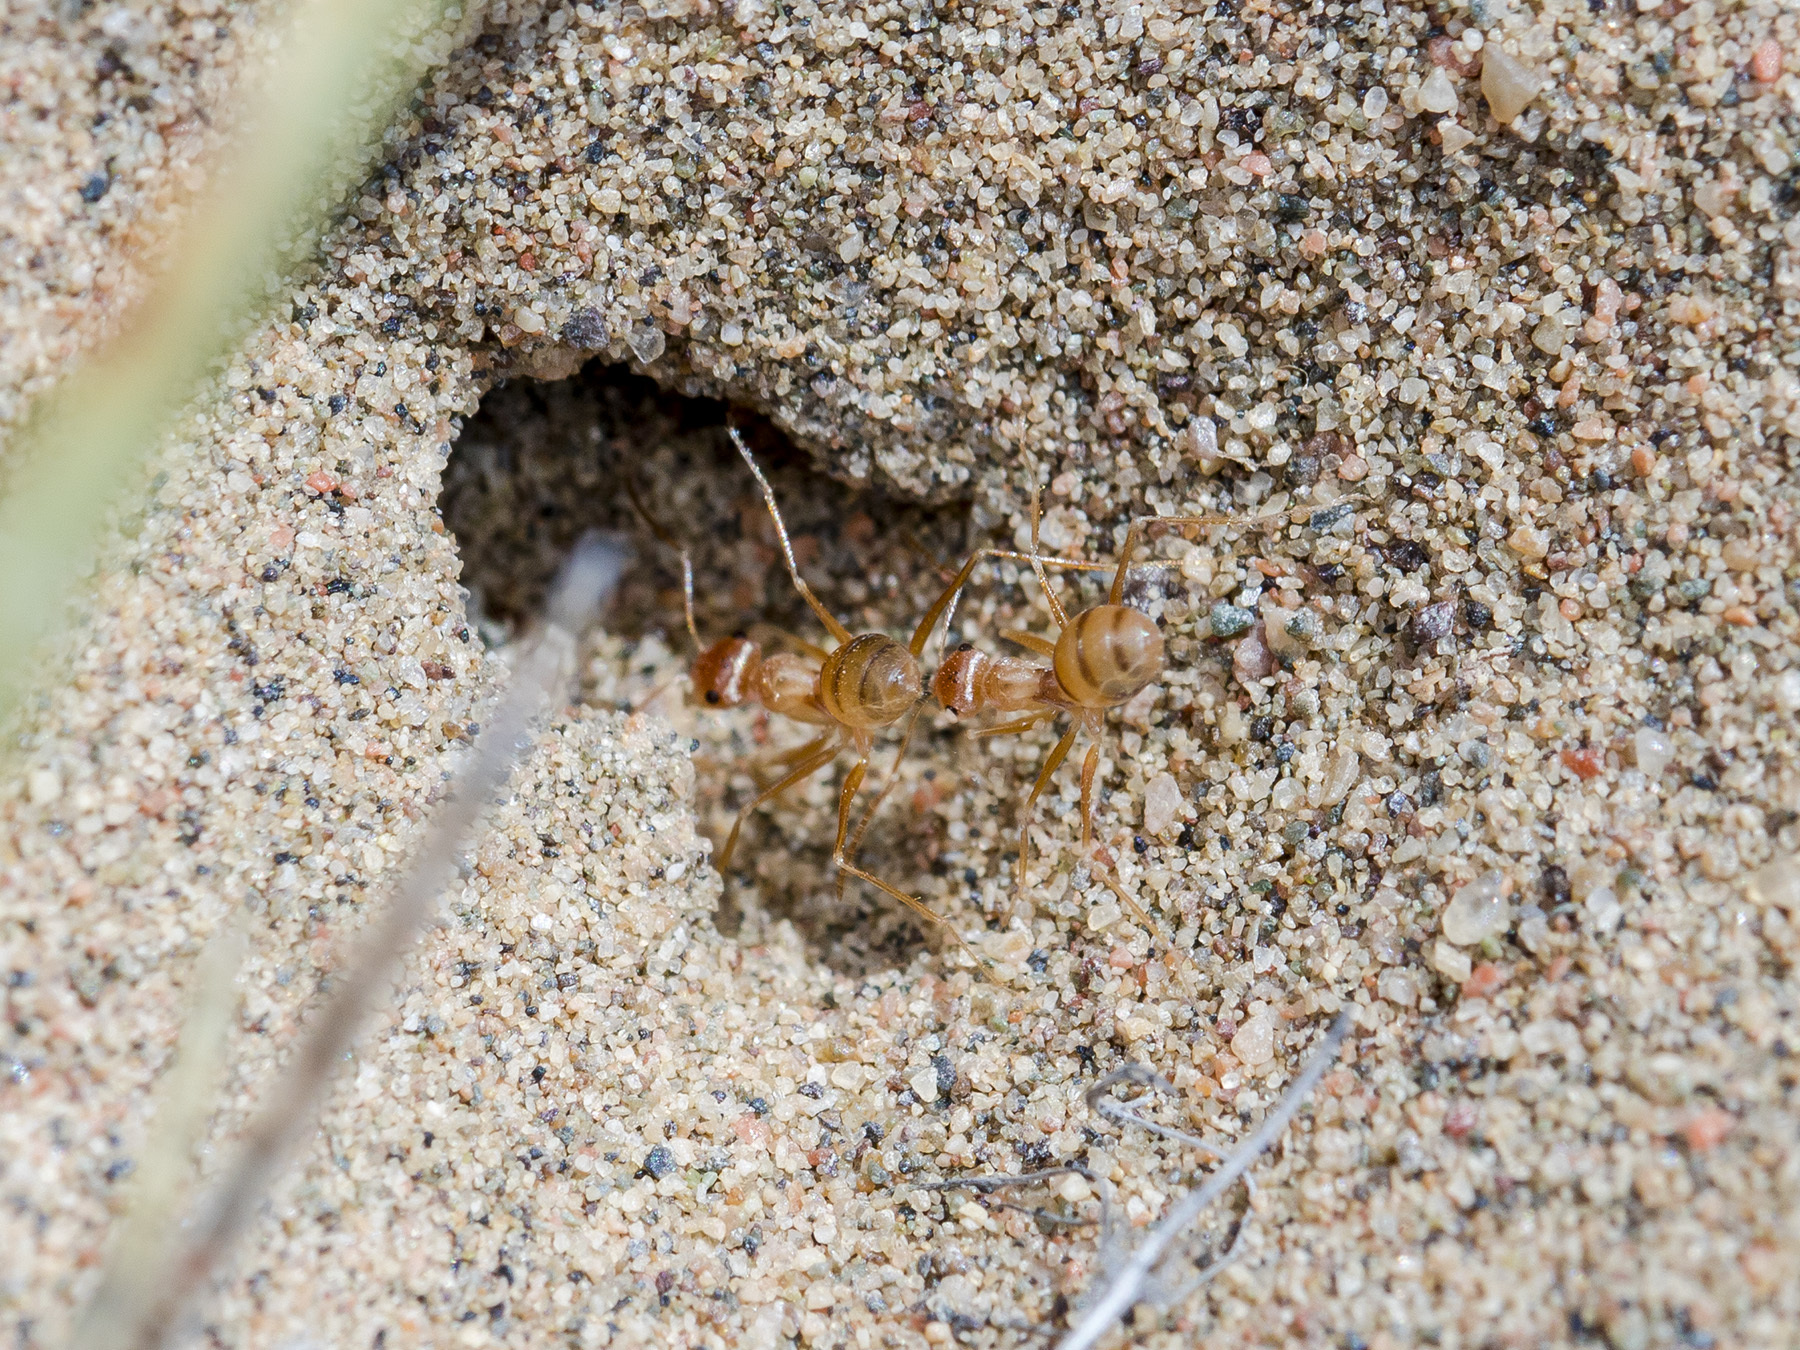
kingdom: Animalia
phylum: Arthropoda
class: Insecta
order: Hymenoptera
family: Formicidae
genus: Cataglyphis
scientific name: Cataglyphis pallidus
